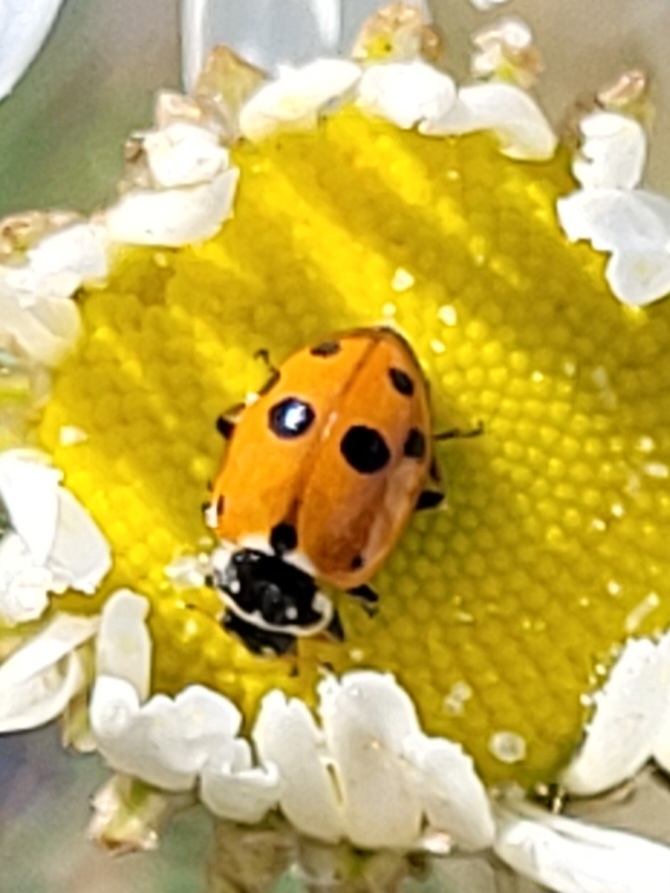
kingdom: Animalia
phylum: Arthropoda
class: Insecta
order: Coleoptera
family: Coccinellidae
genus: Hippodamia
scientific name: Hippodamia variegata
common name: Ladybird beetle
